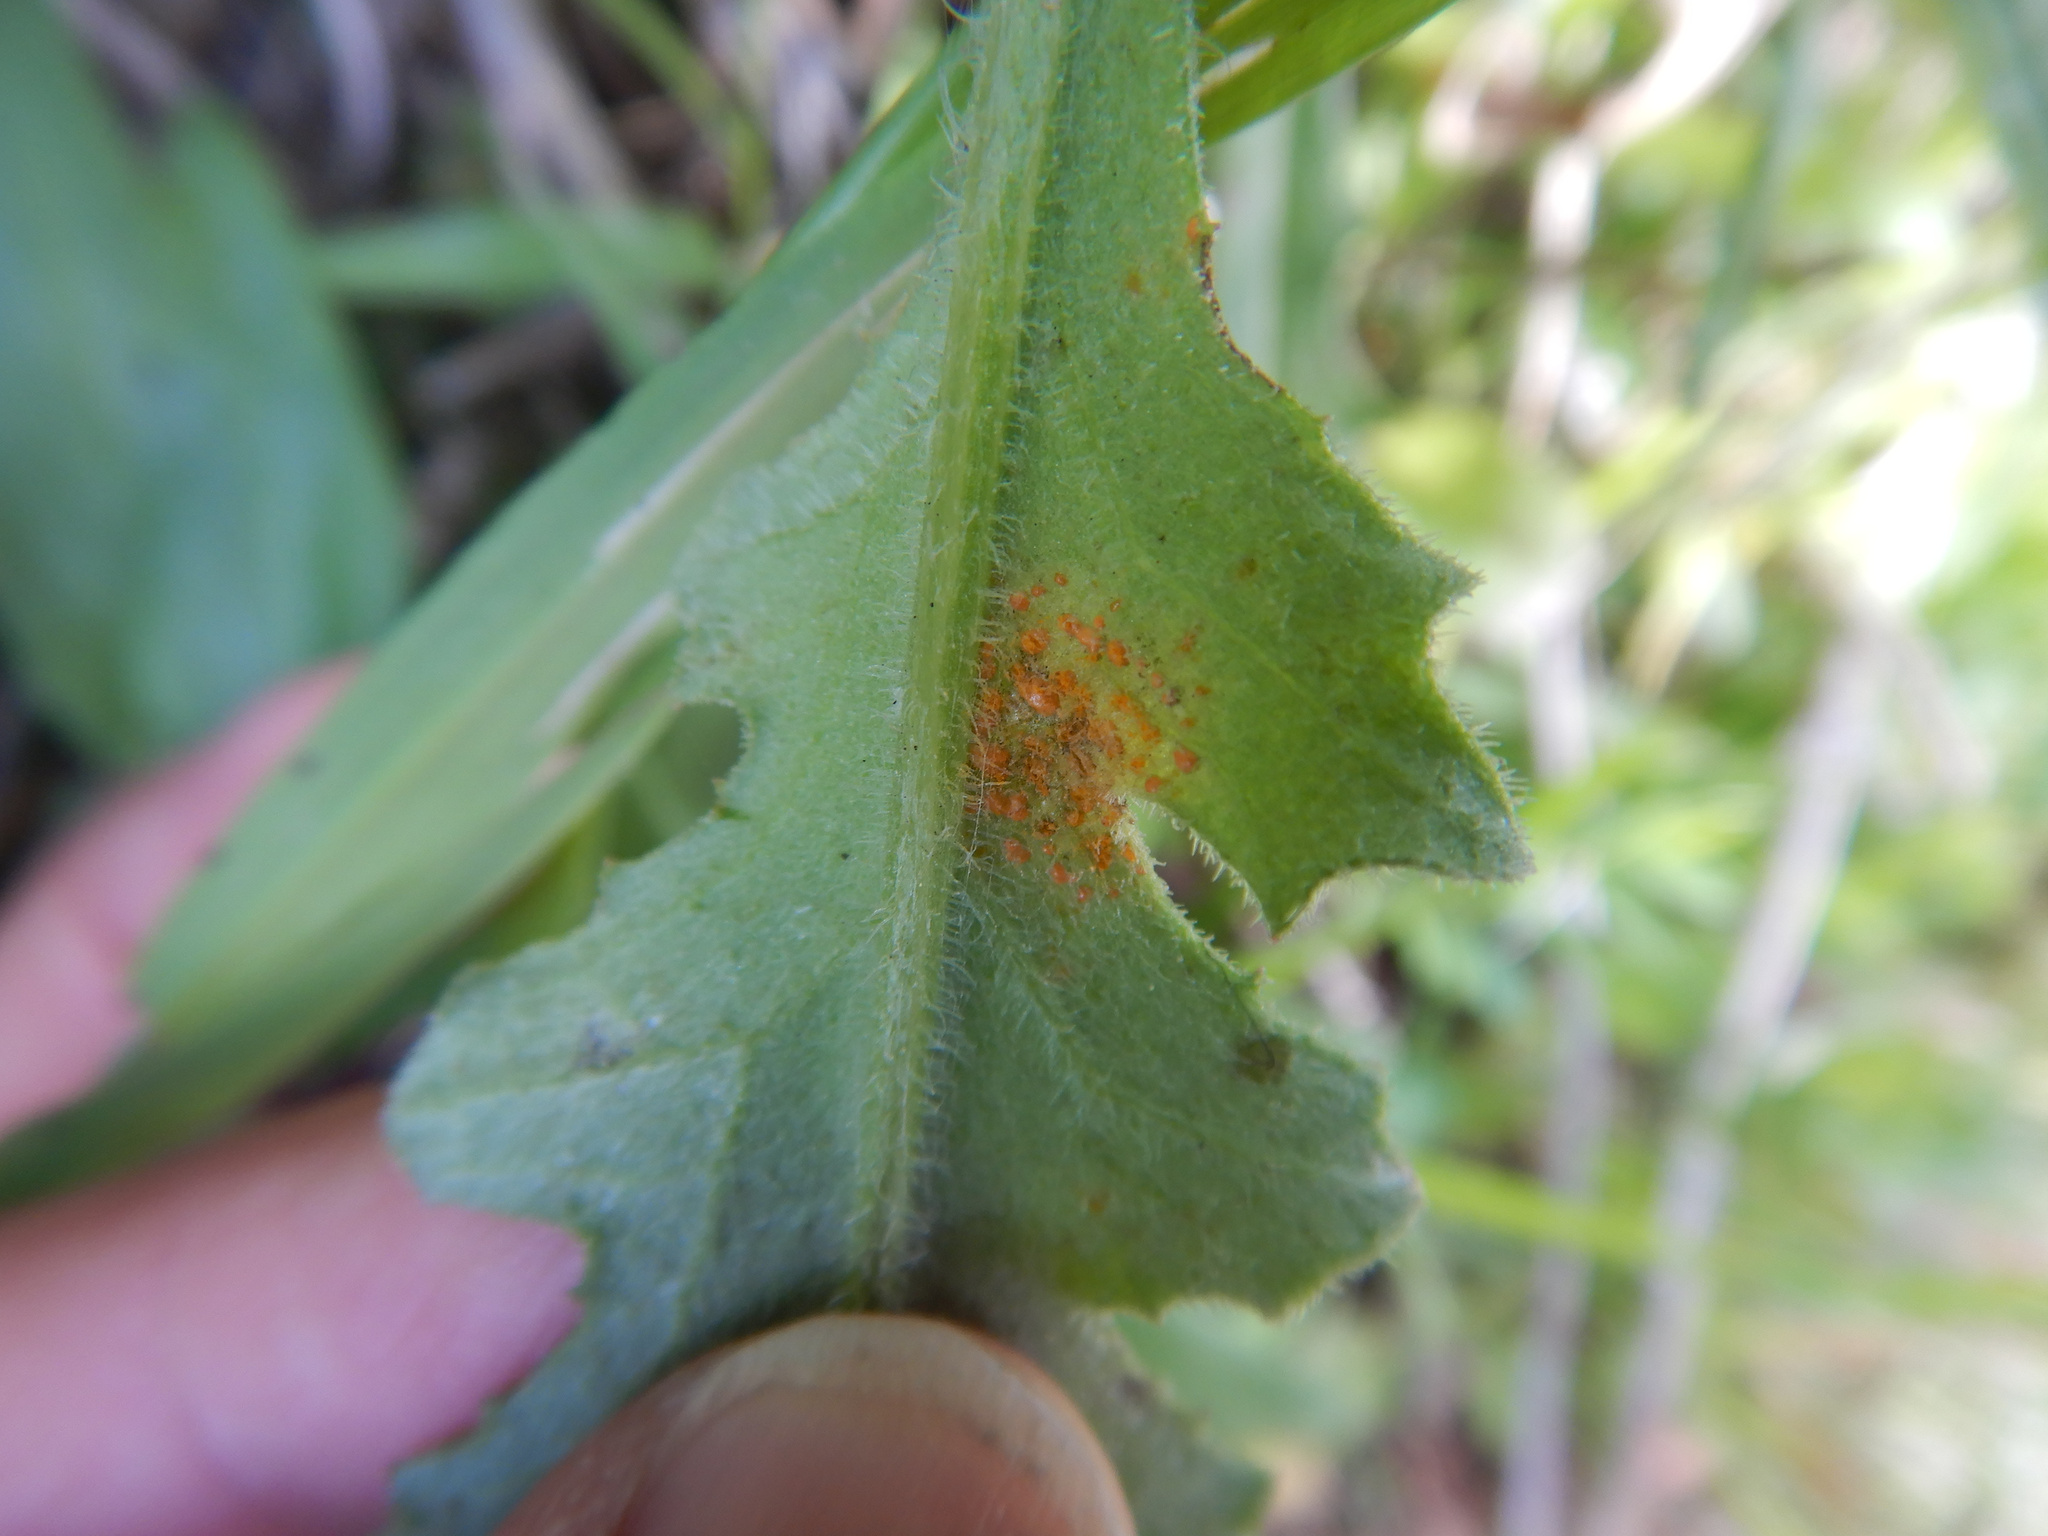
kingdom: Fungi
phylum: Basidiomycota
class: Pucciniomycetes
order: Pucciniales
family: Coleosporiaceae
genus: Coleosporium
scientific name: Coleosporium tussilaginis
